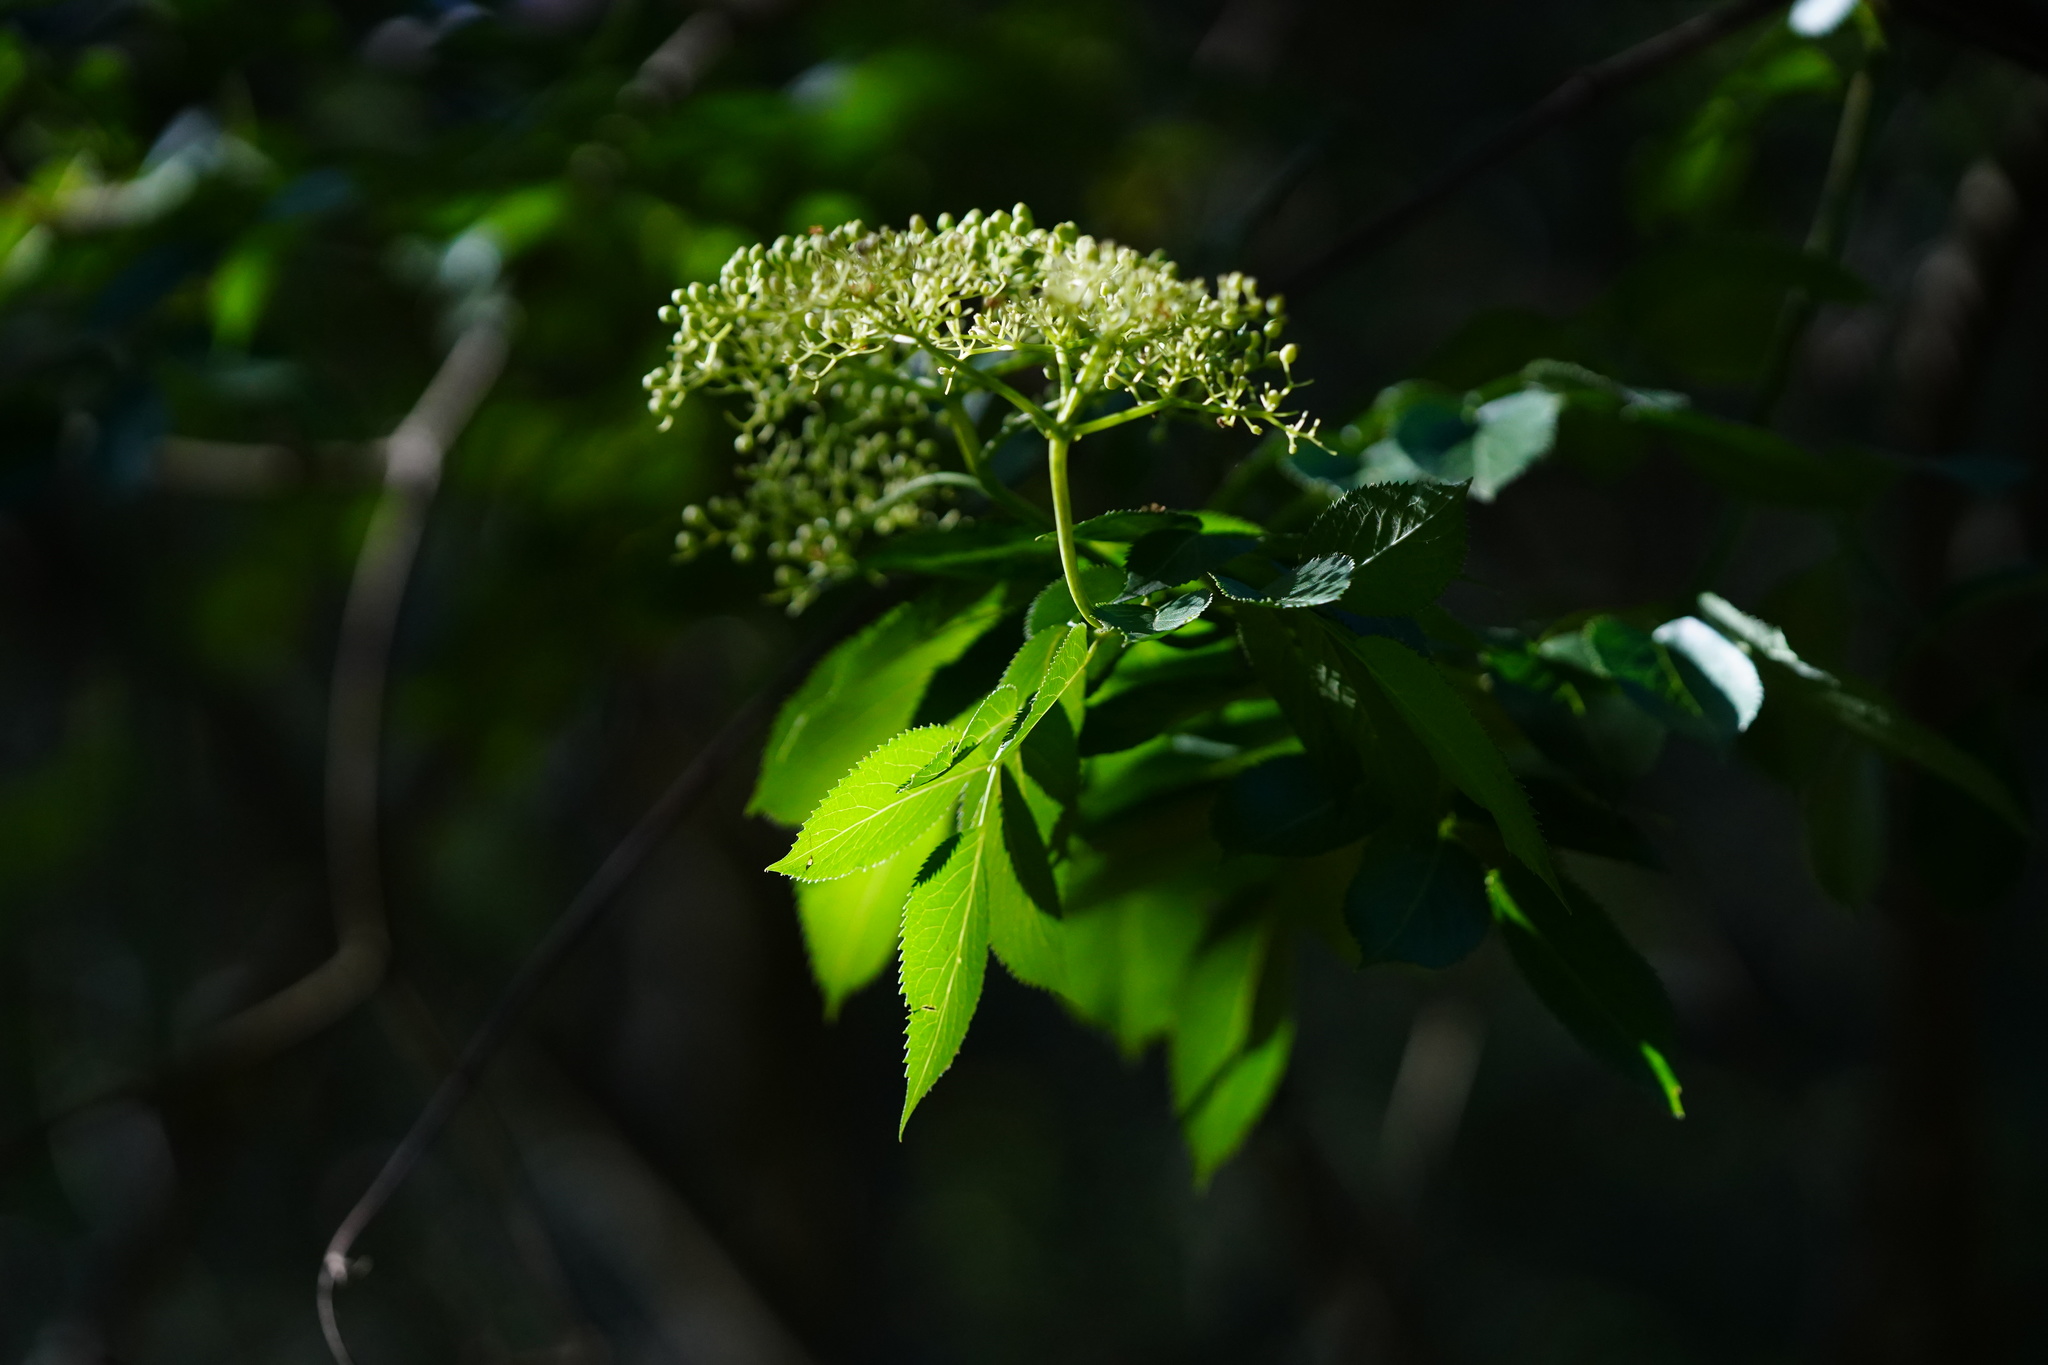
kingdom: Plantae
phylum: Tracheophyta
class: Magnoliopsida
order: Dipsacales
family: Viburnaceae
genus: Sambucus
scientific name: Sambucus cerulea
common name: Blue elder
